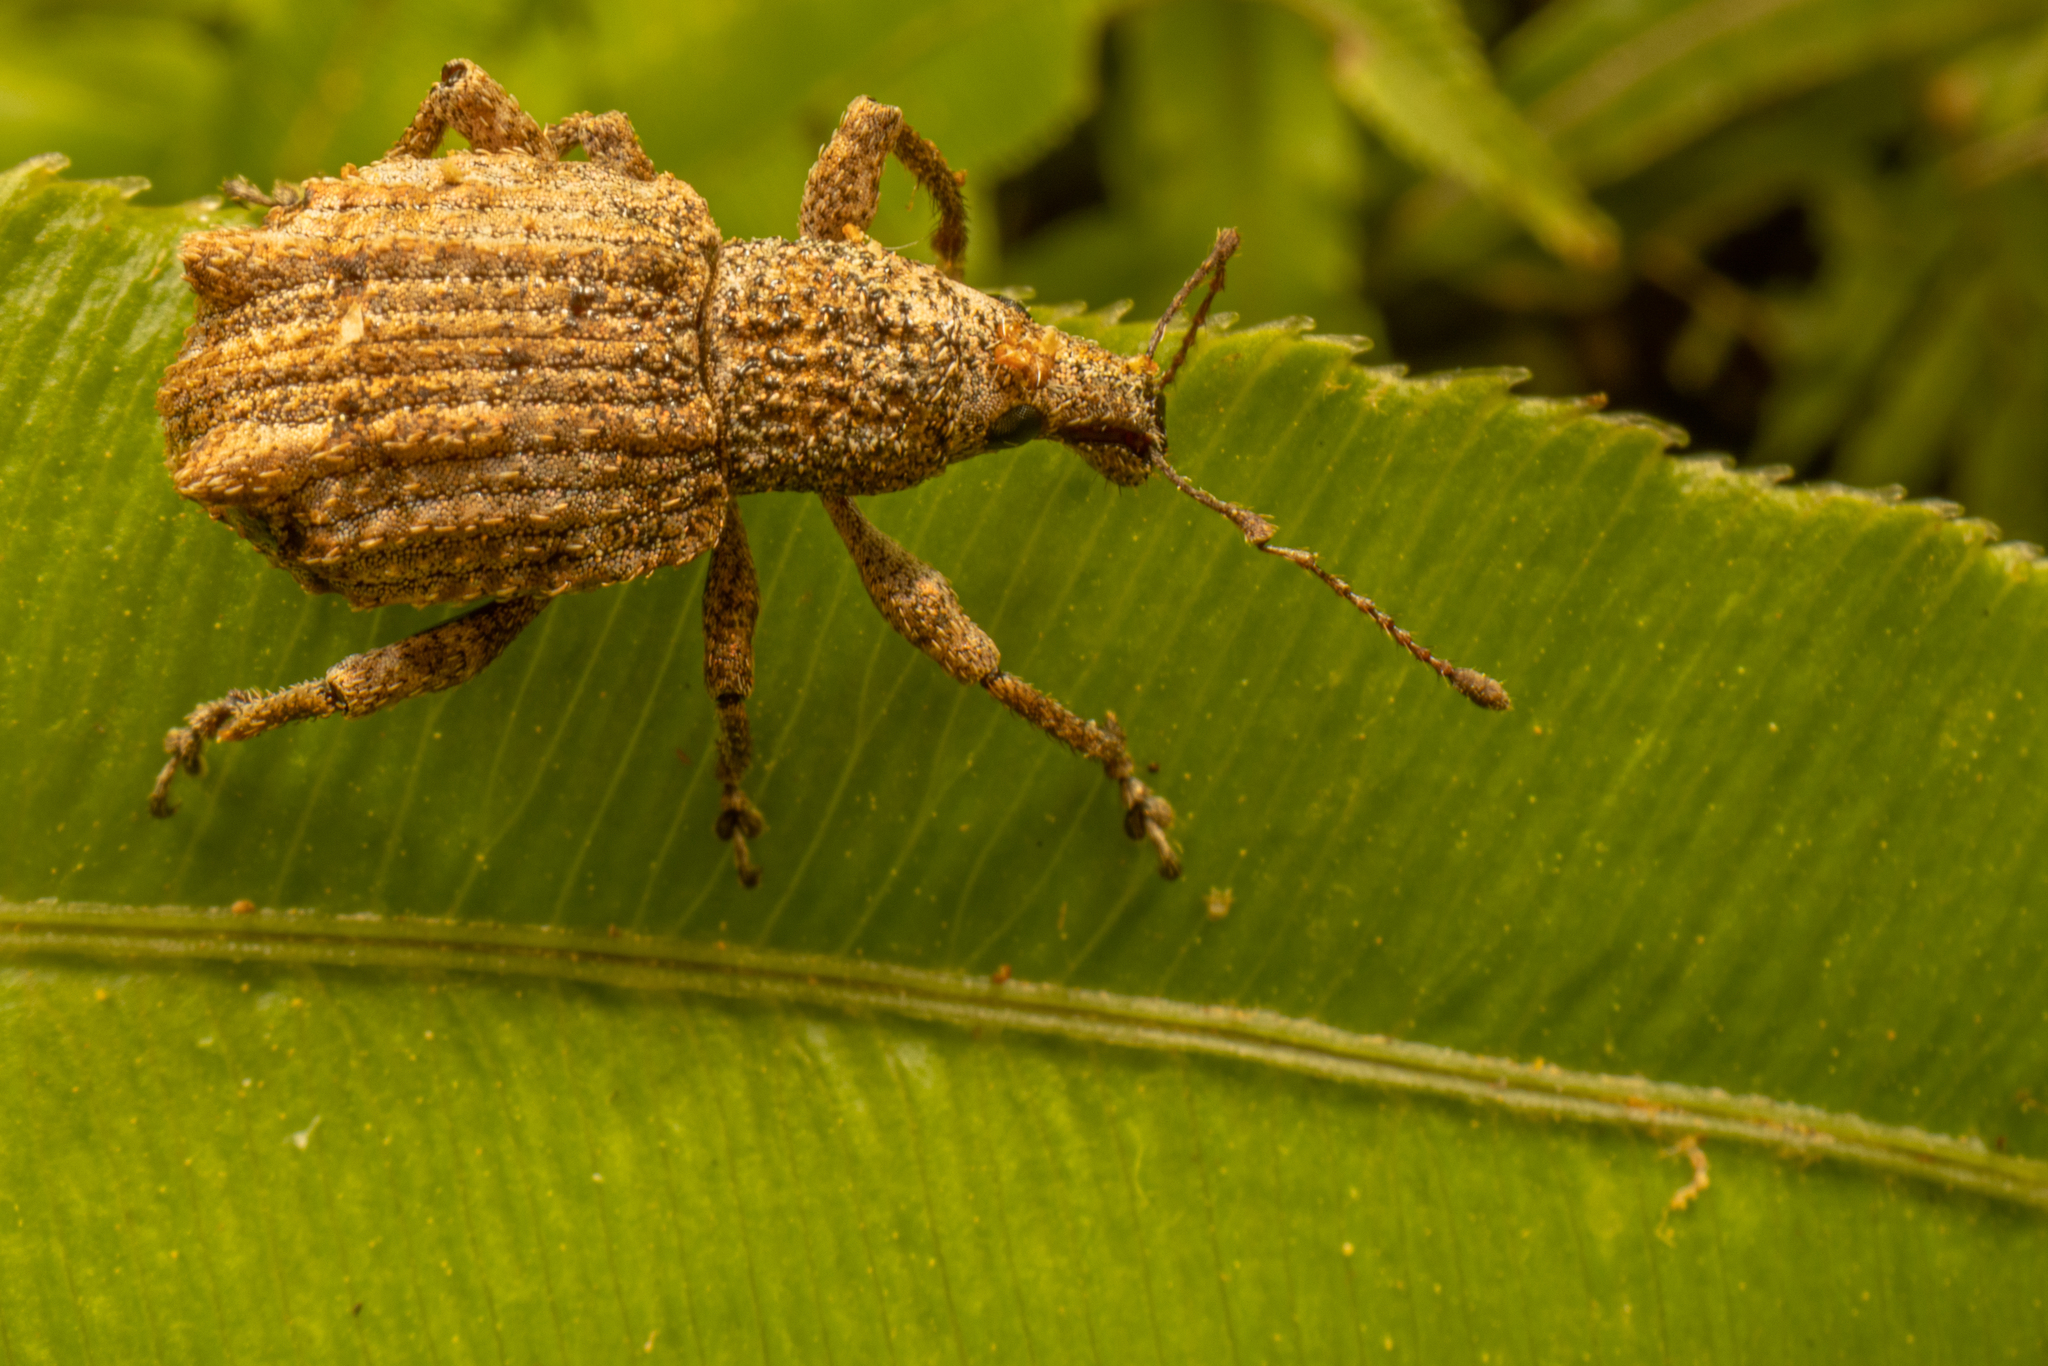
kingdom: Animalia
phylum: Arthropoda
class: Insecta
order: Coleoptera
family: Curculionidae
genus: Catoptes
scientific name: Catoptes binodis
